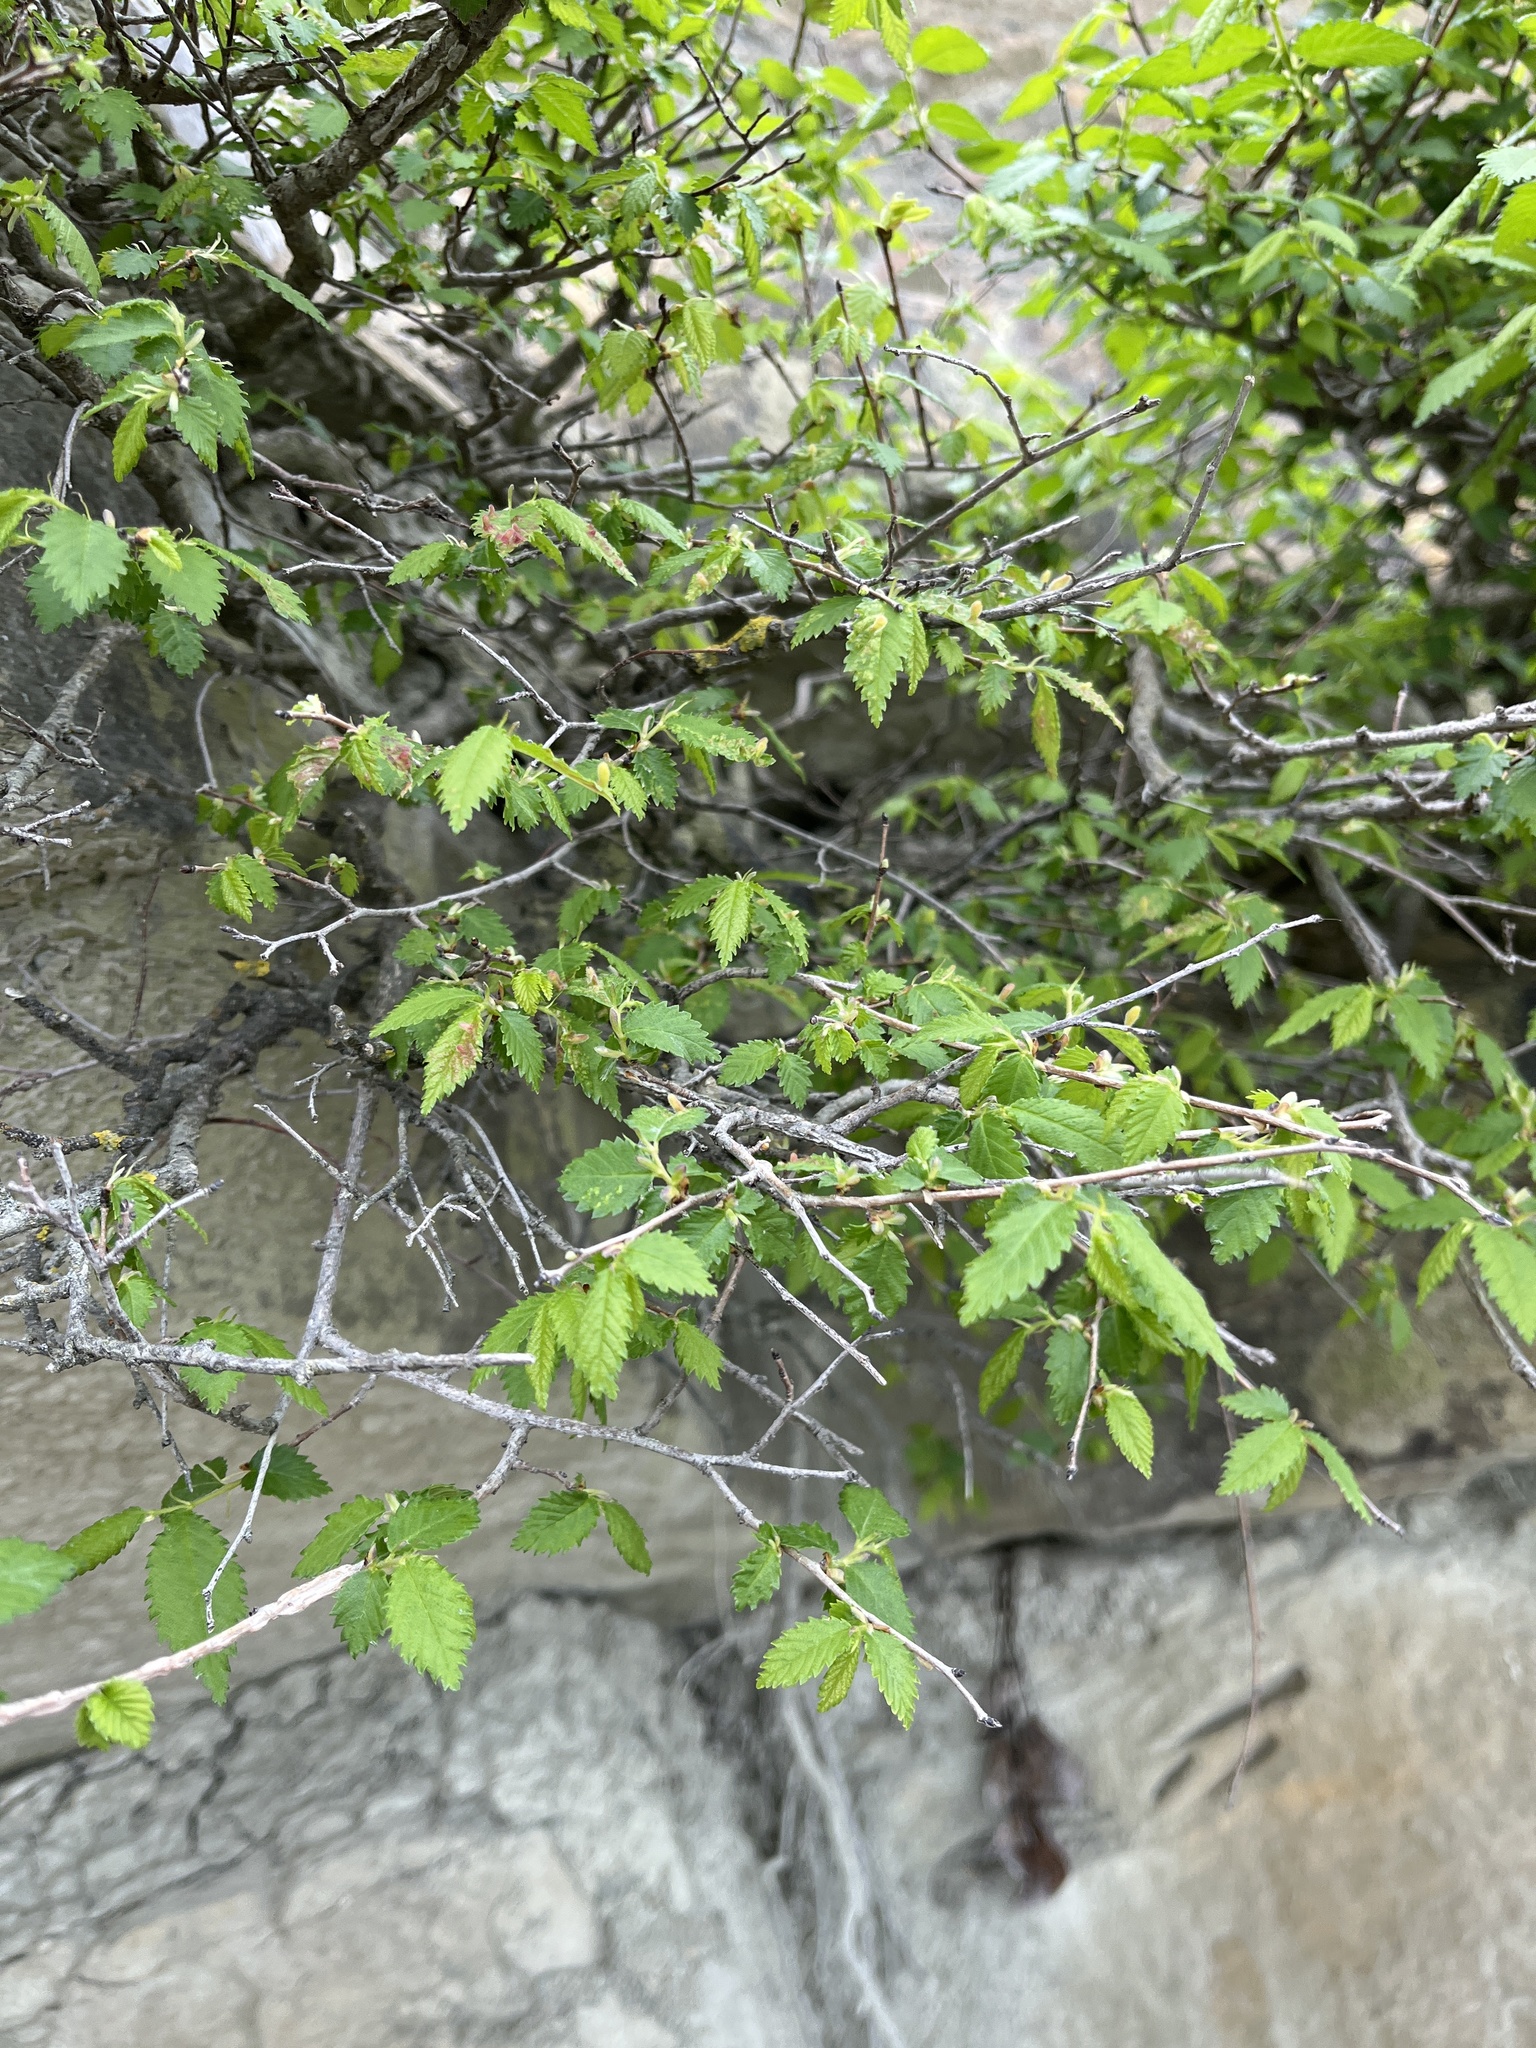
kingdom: Plantae
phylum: Tracheophyta
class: Magnoliopsida
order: Rosales
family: Ulmaceae
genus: Ulmus
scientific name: Ulmus minor
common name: Small-leaved elm
